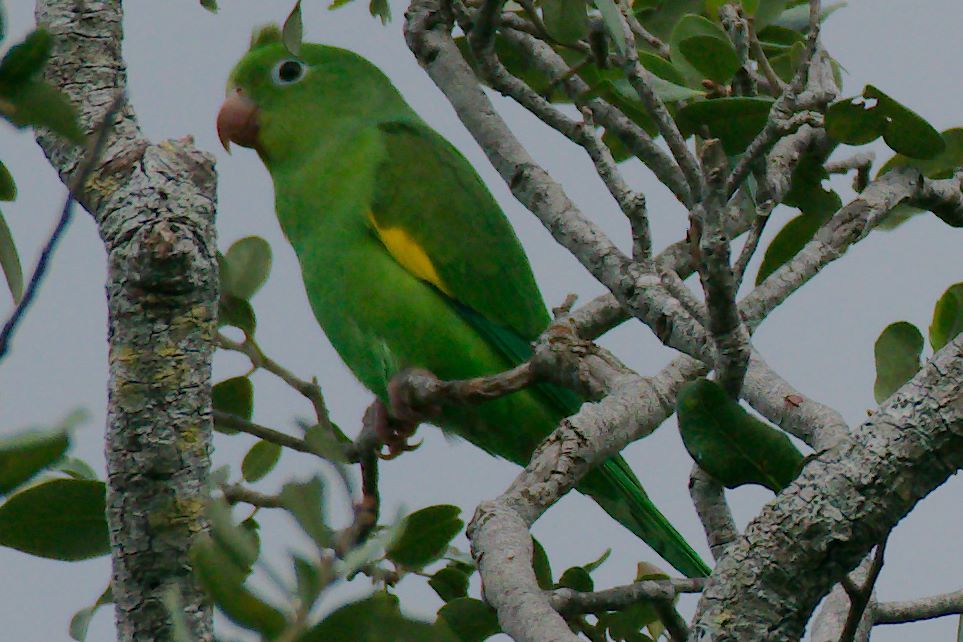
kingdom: Animalia
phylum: Chordata
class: Aves
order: Psittaciformes
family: Psittacidae
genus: Brotogeris
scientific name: Brotogeris chiriri
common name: Yellow-chevroned parakeet
